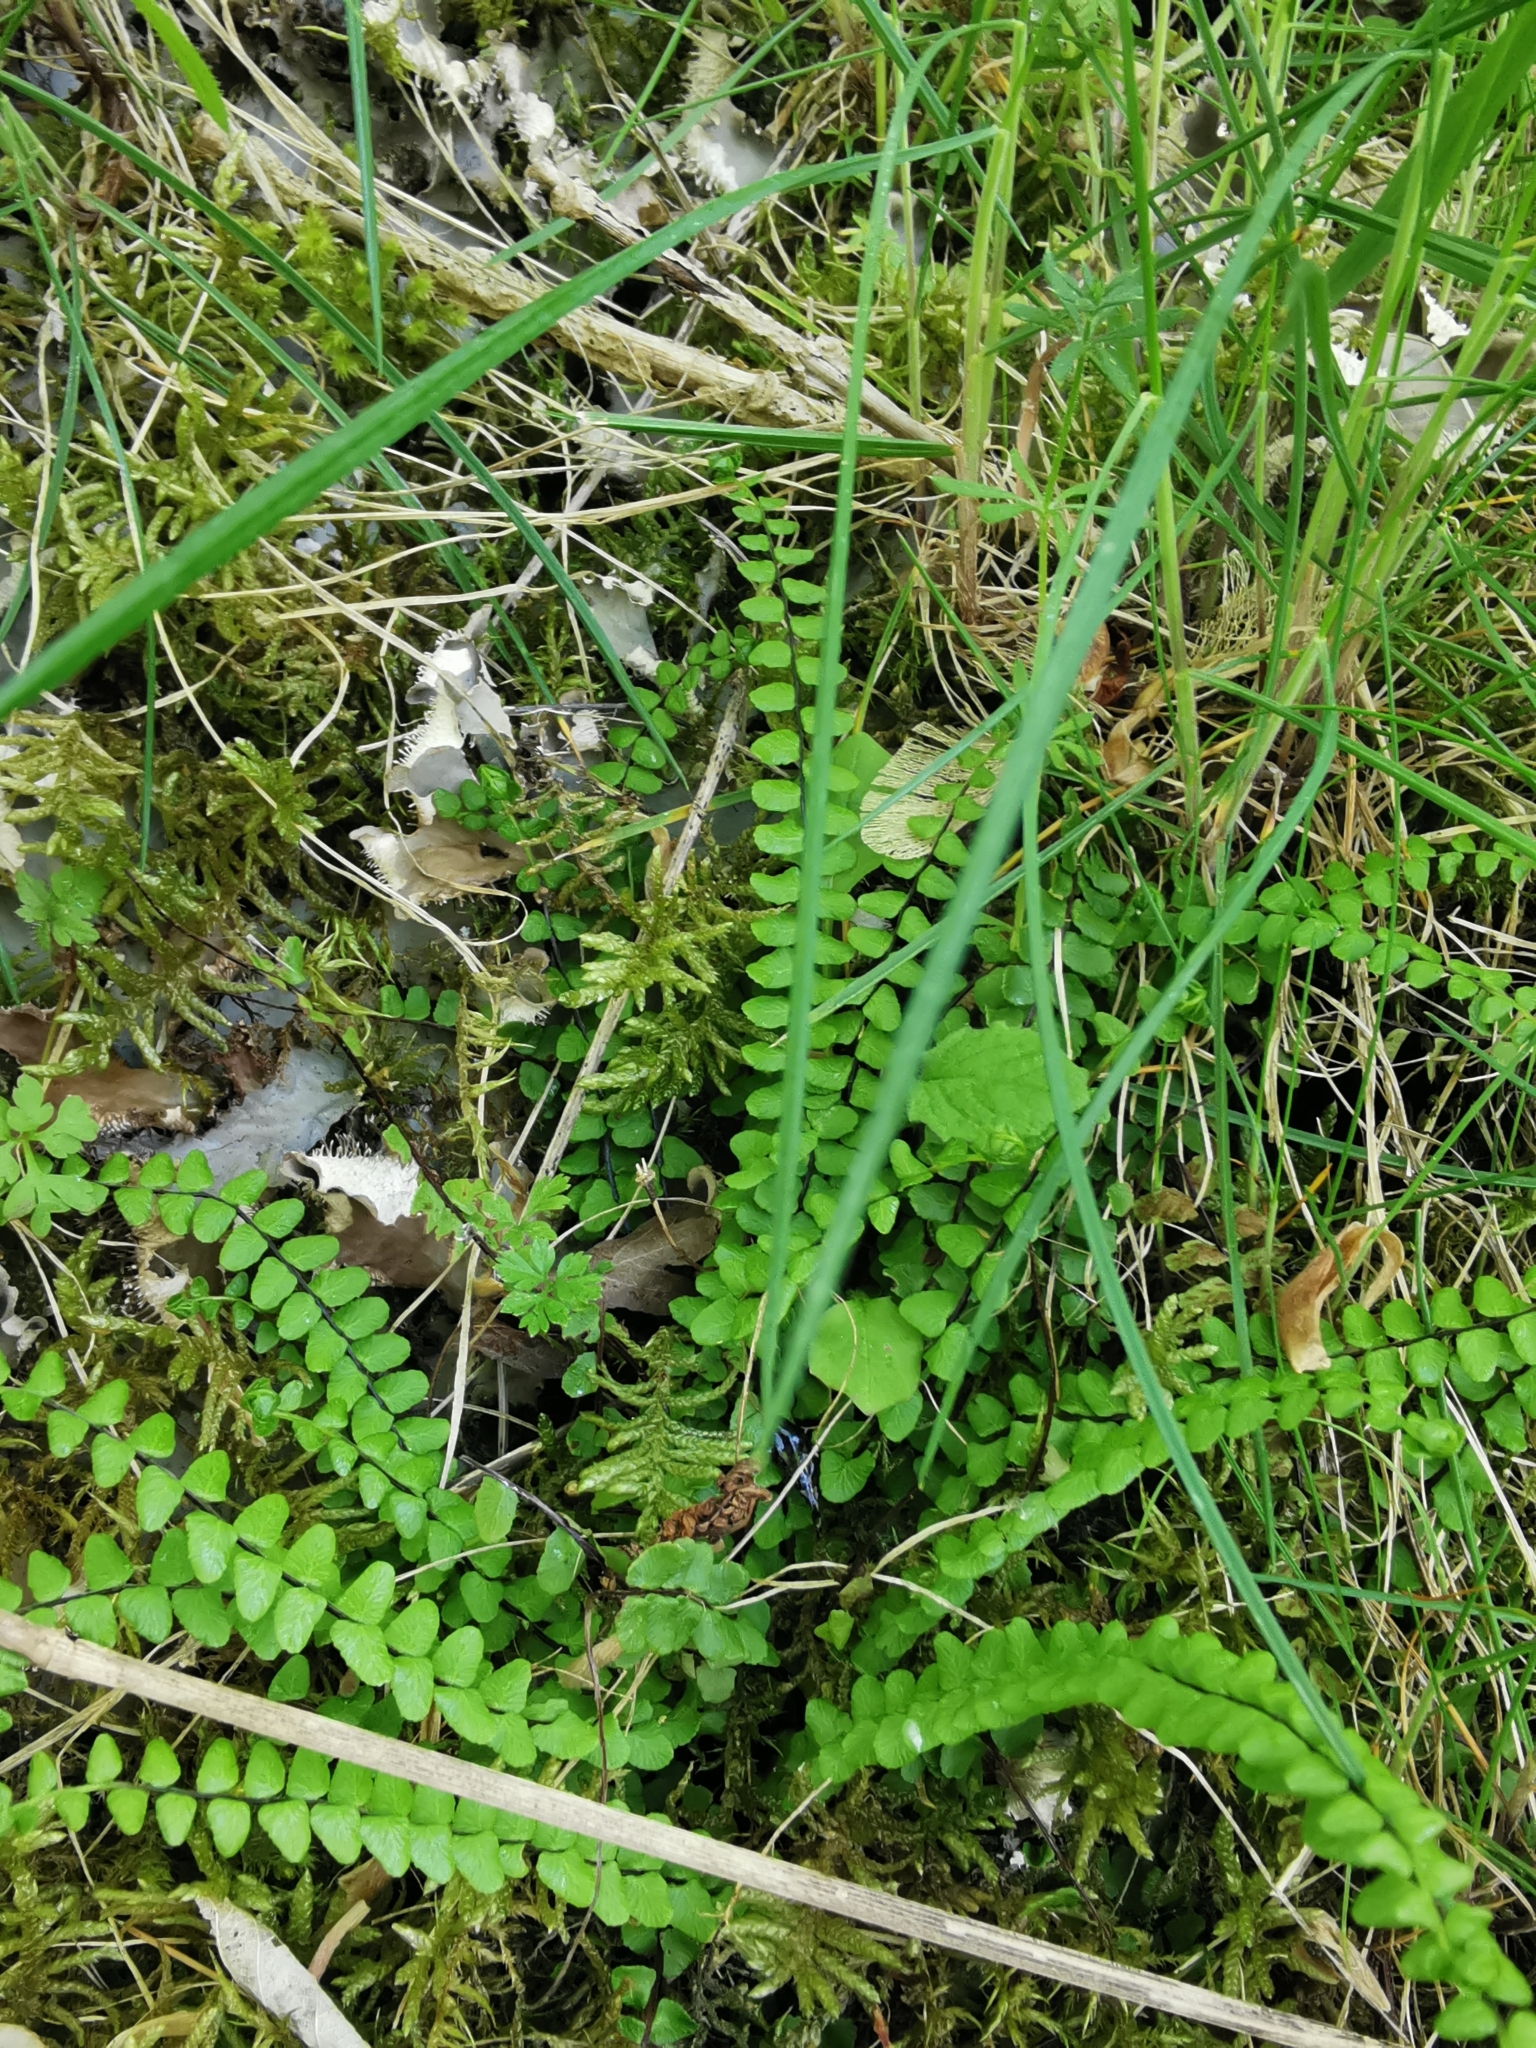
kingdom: Plantae
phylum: Tracheophyta
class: Polypodiopsida
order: Polypodiales
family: Aspleniaceae
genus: Asplenium
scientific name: Asplenium trichomanes
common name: Maidenhair spleenwort
